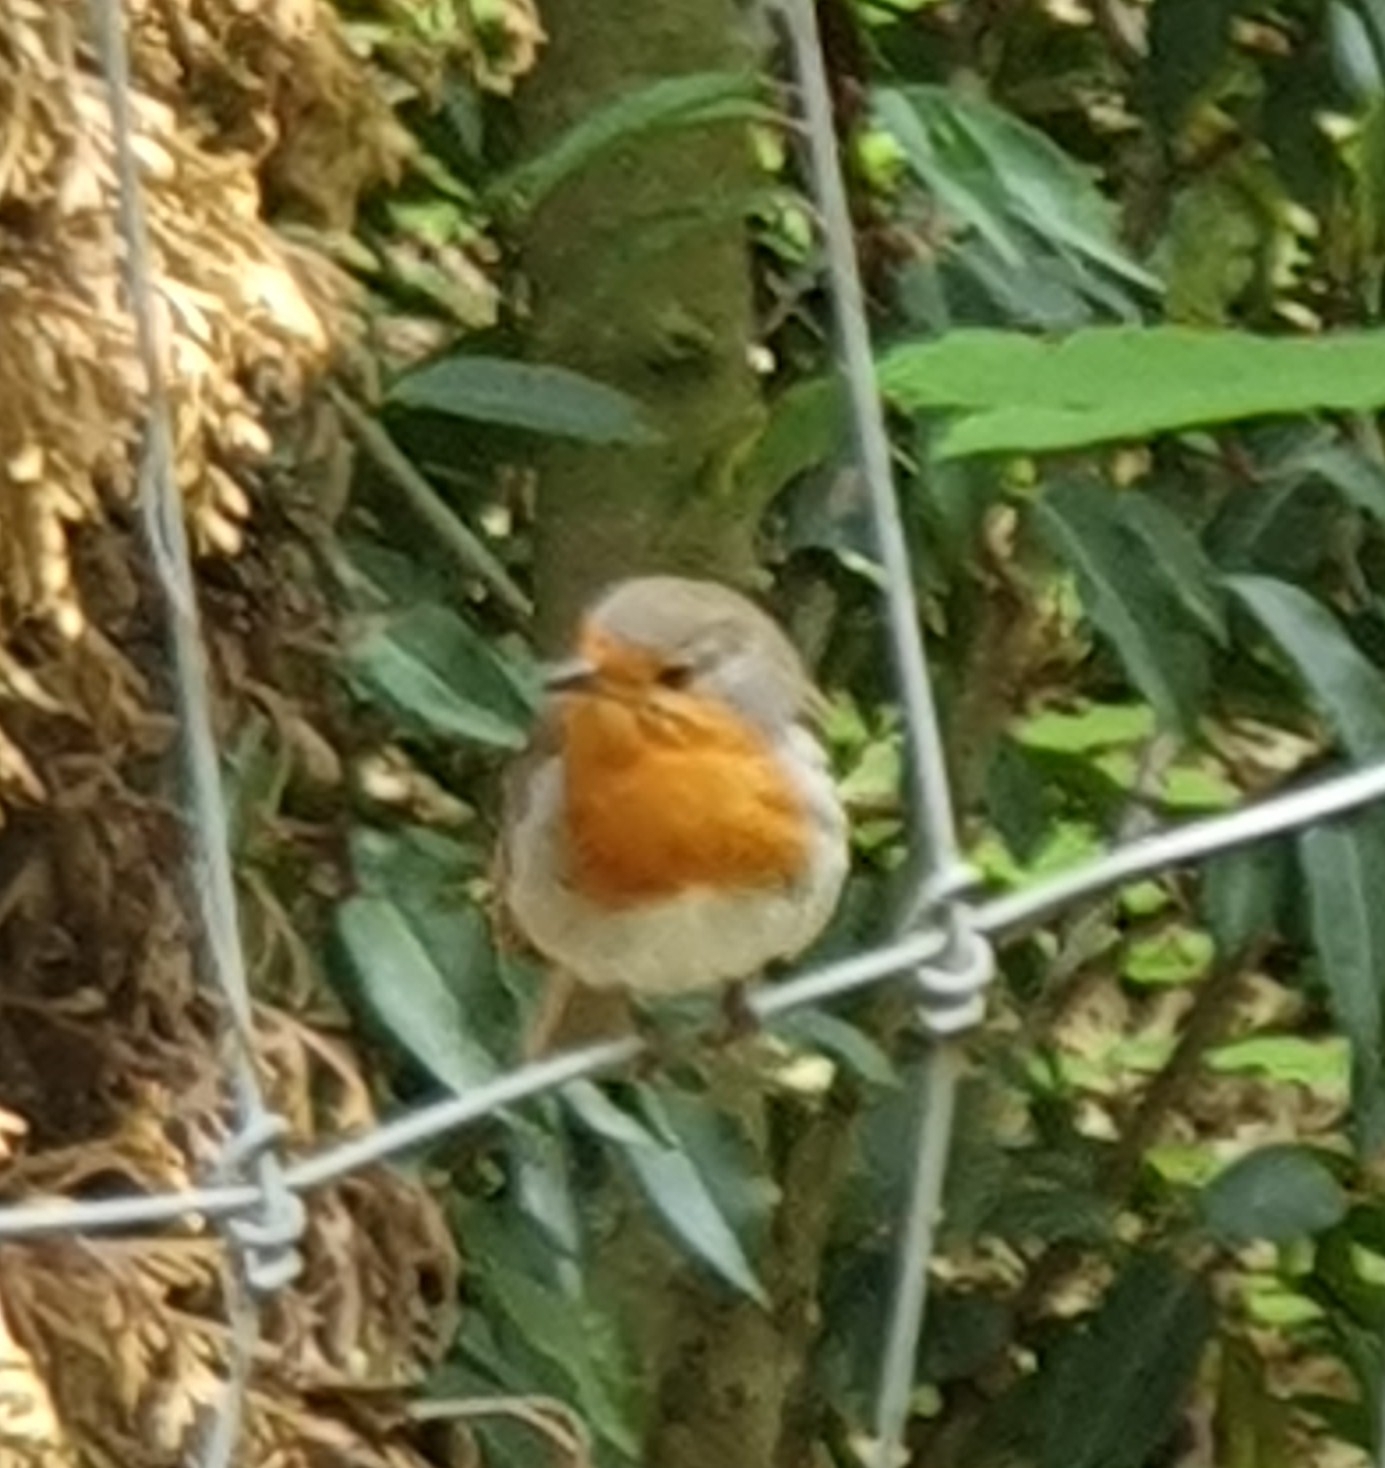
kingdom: Animalia
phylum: Chordata
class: Aves
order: Passeriformes
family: Muscicapidae
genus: Erithacus
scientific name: Erithacus rubecula
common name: European robin
